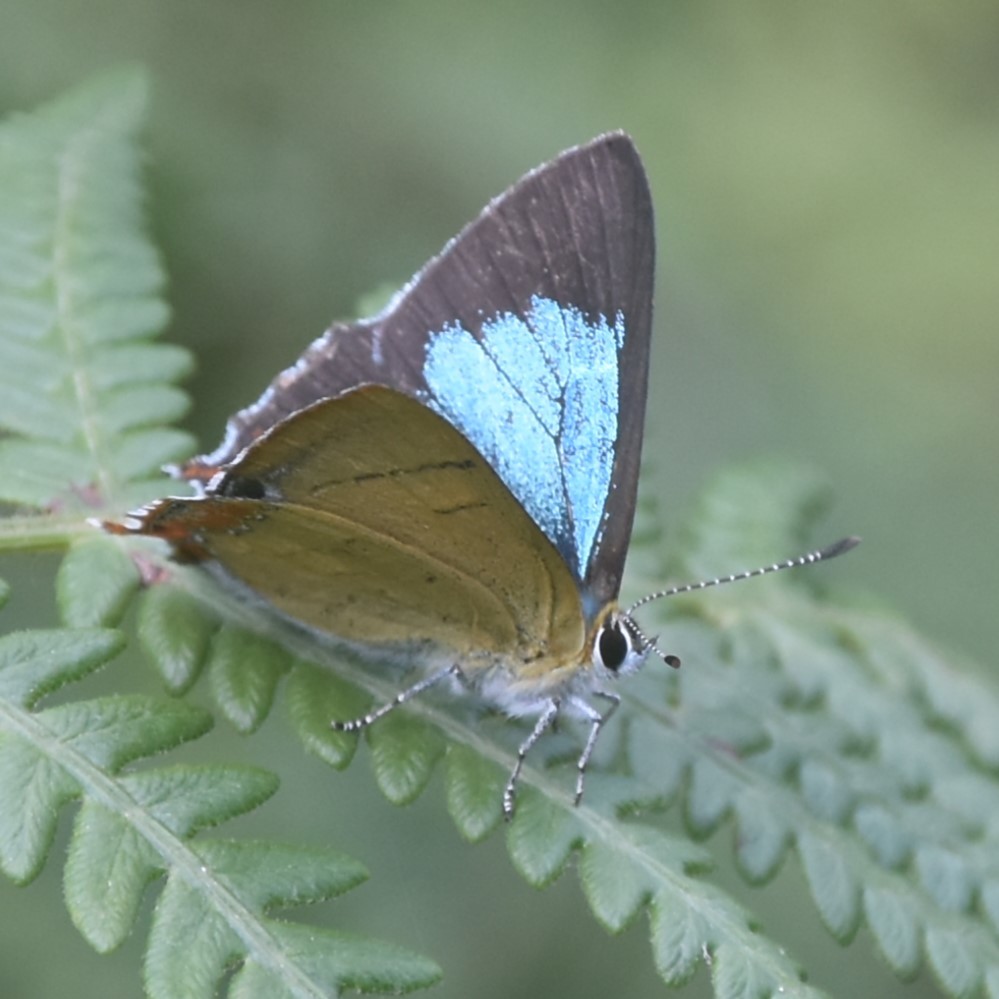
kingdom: Animalia
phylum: Arthropoda
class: Insecta
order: Lepidoptera
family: Lycaenidae
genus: Heliophorus
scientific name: Heliophorus
